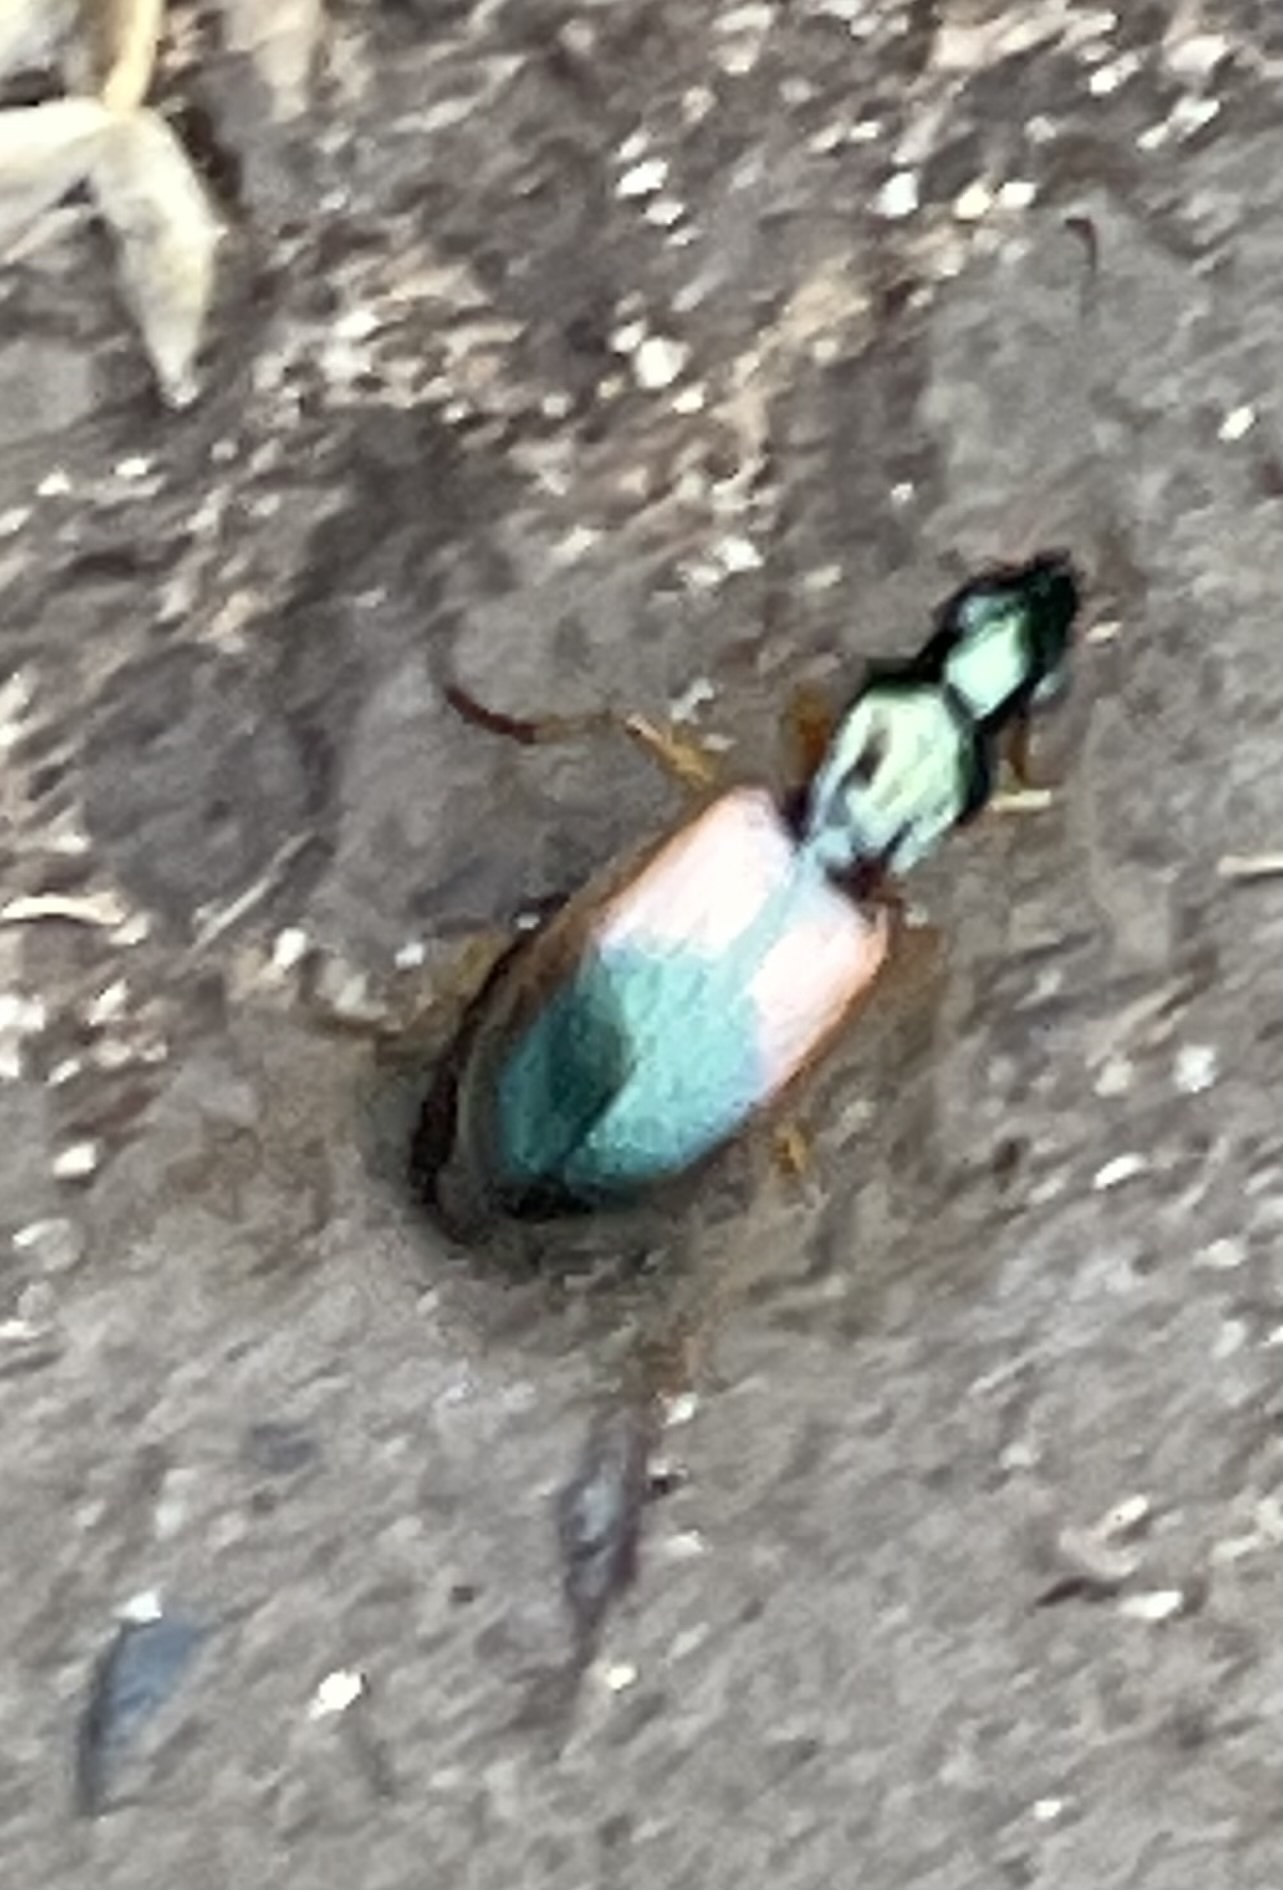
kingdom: Animalia
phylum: Arthropoda
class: Insecta
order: Coleoptera
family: Carabidae
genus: Anchomenus
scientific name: Anchomenus dorsalis
